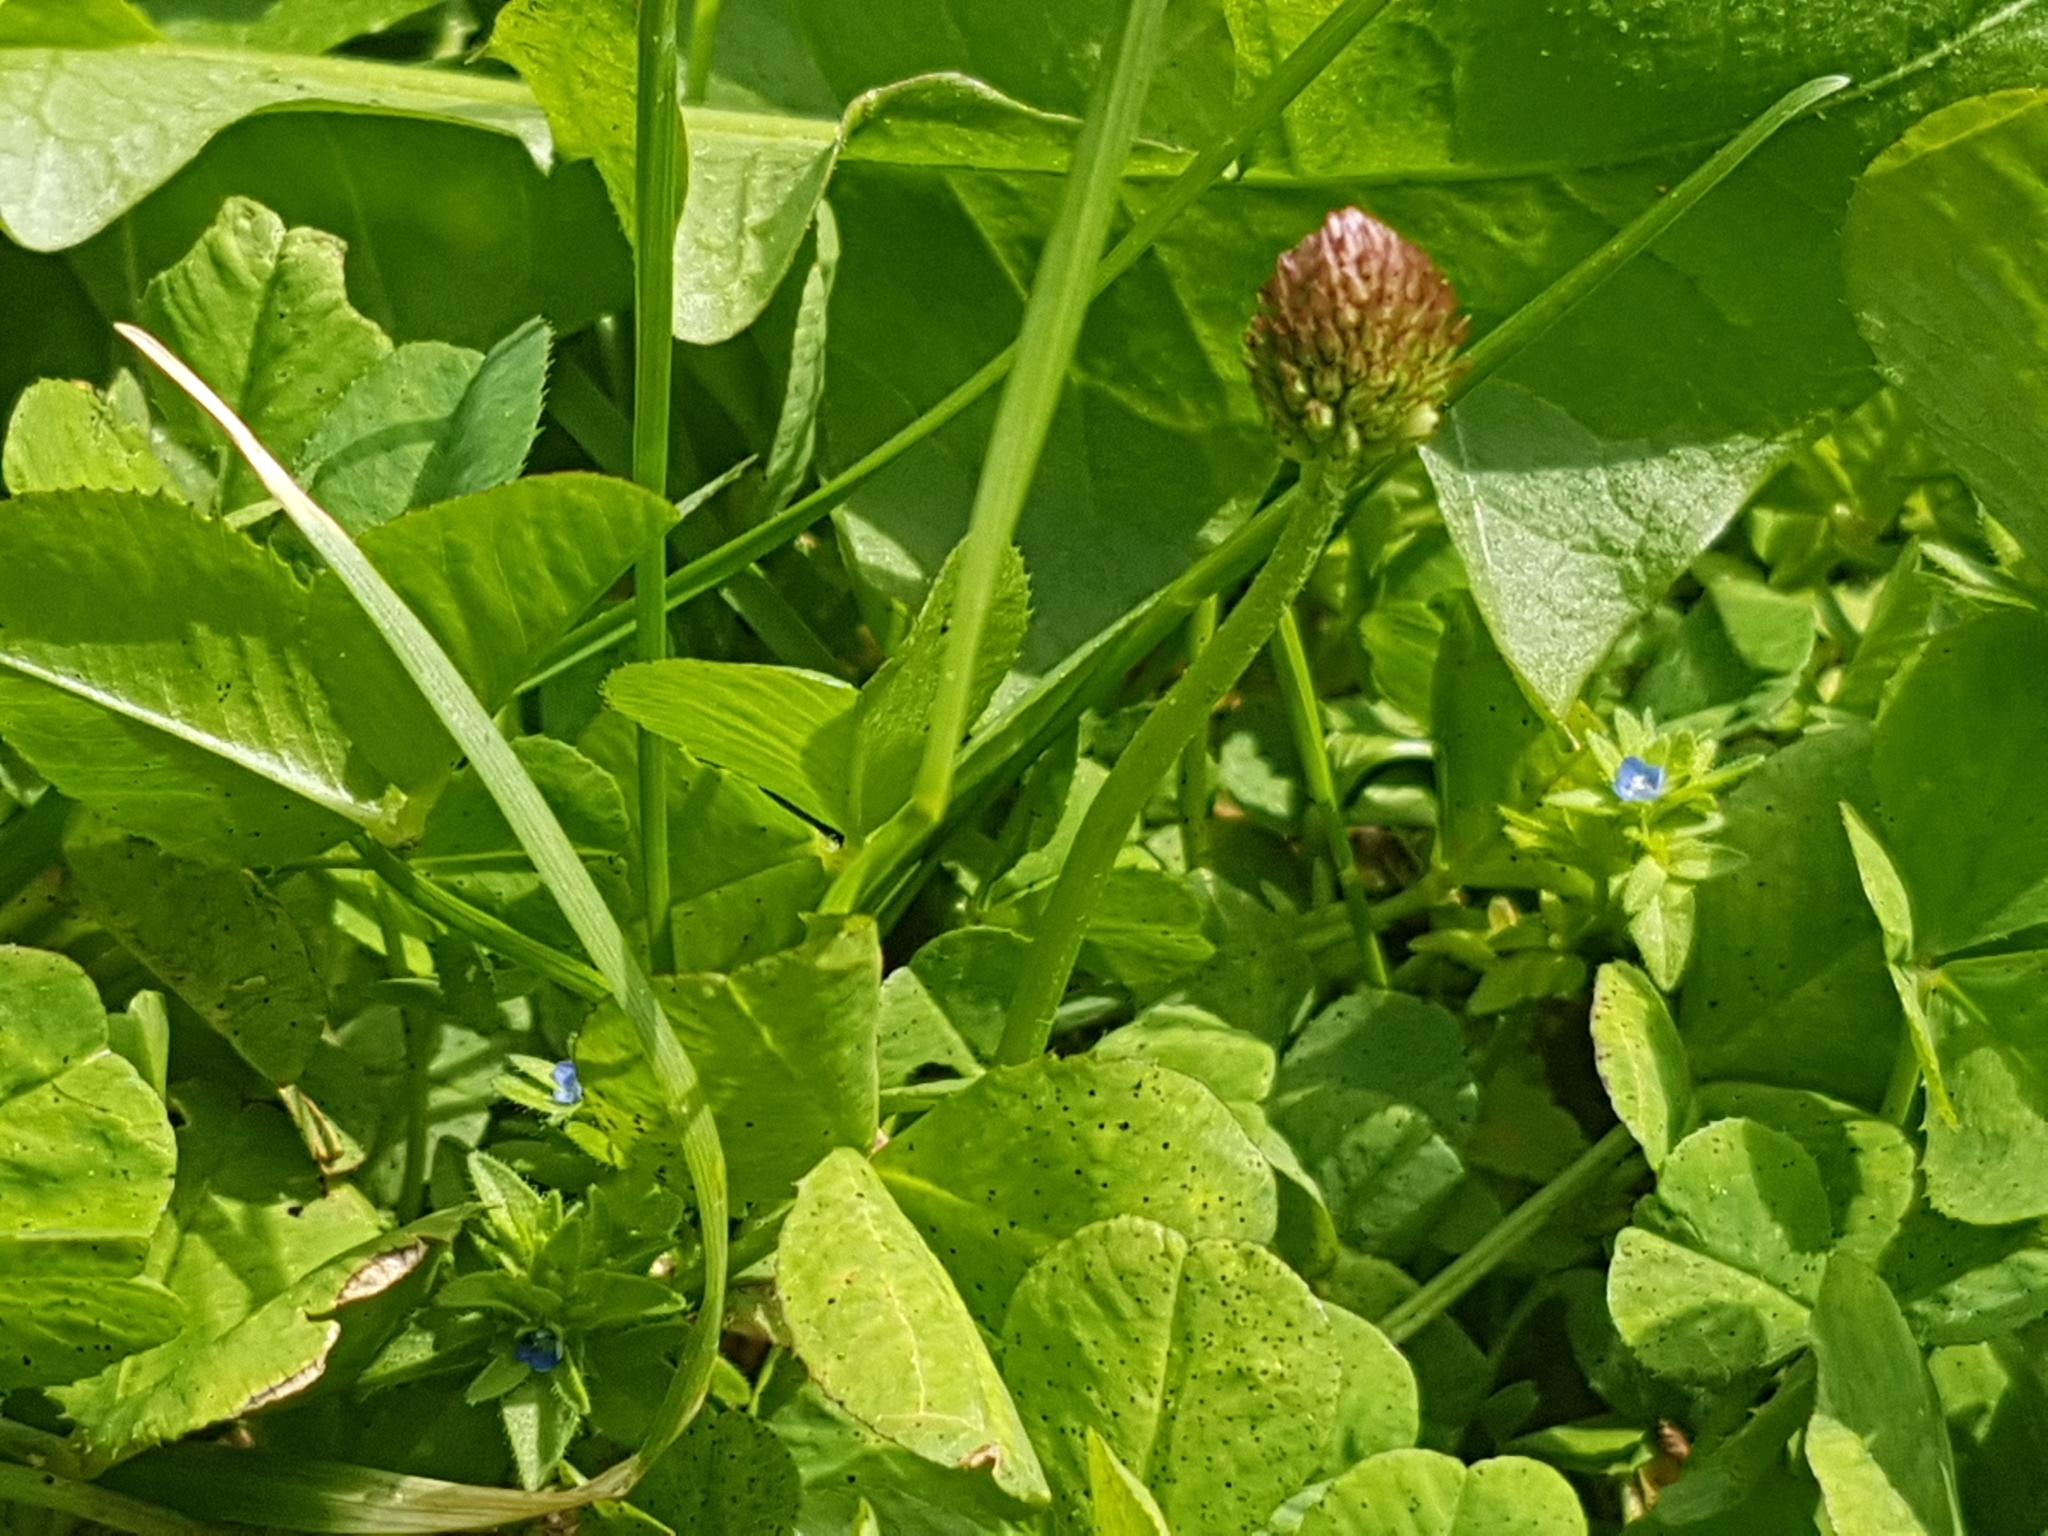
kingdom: Plantae
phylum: Tracheophyta
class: Magnoliopsida
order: Fabales
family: Fabaceae
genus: Trifolium
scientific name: Trifolium pratense
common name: Red clover
